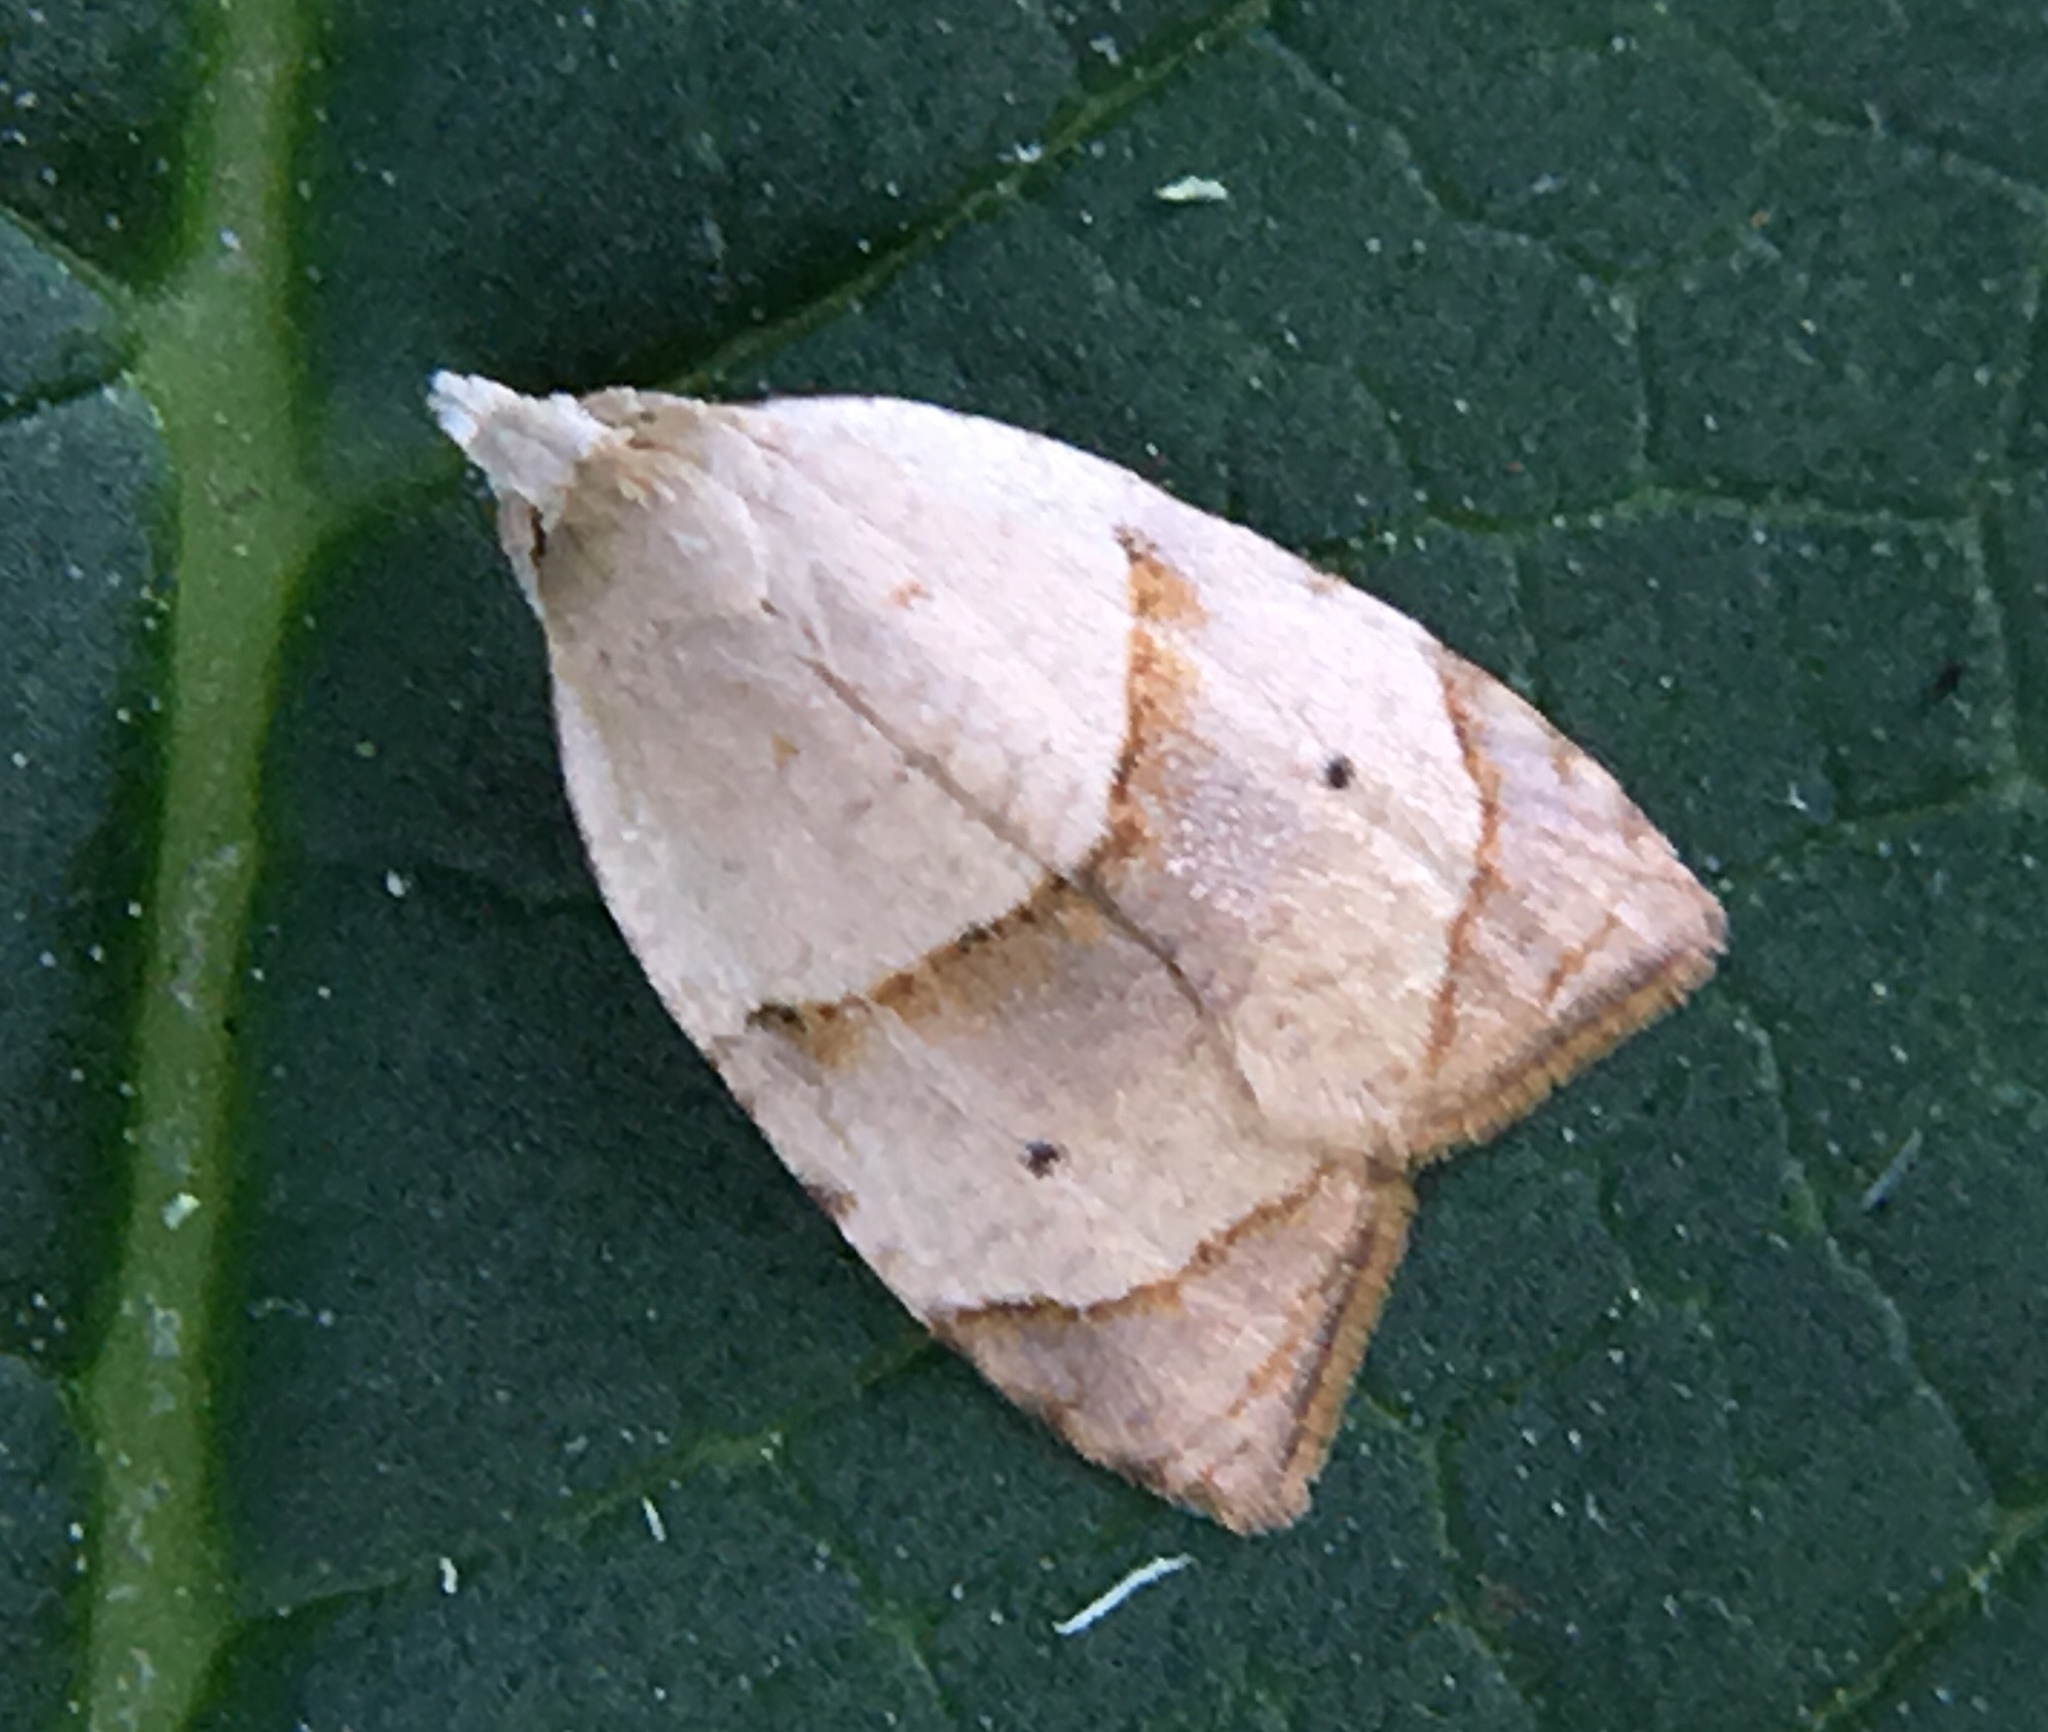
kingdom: Animalia
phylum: Arthropoda
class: Insecta
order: Lepidoptera
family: Tortricidae
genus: Coelostathma
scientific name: Coelostathma discopunctana
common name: Batman moth
